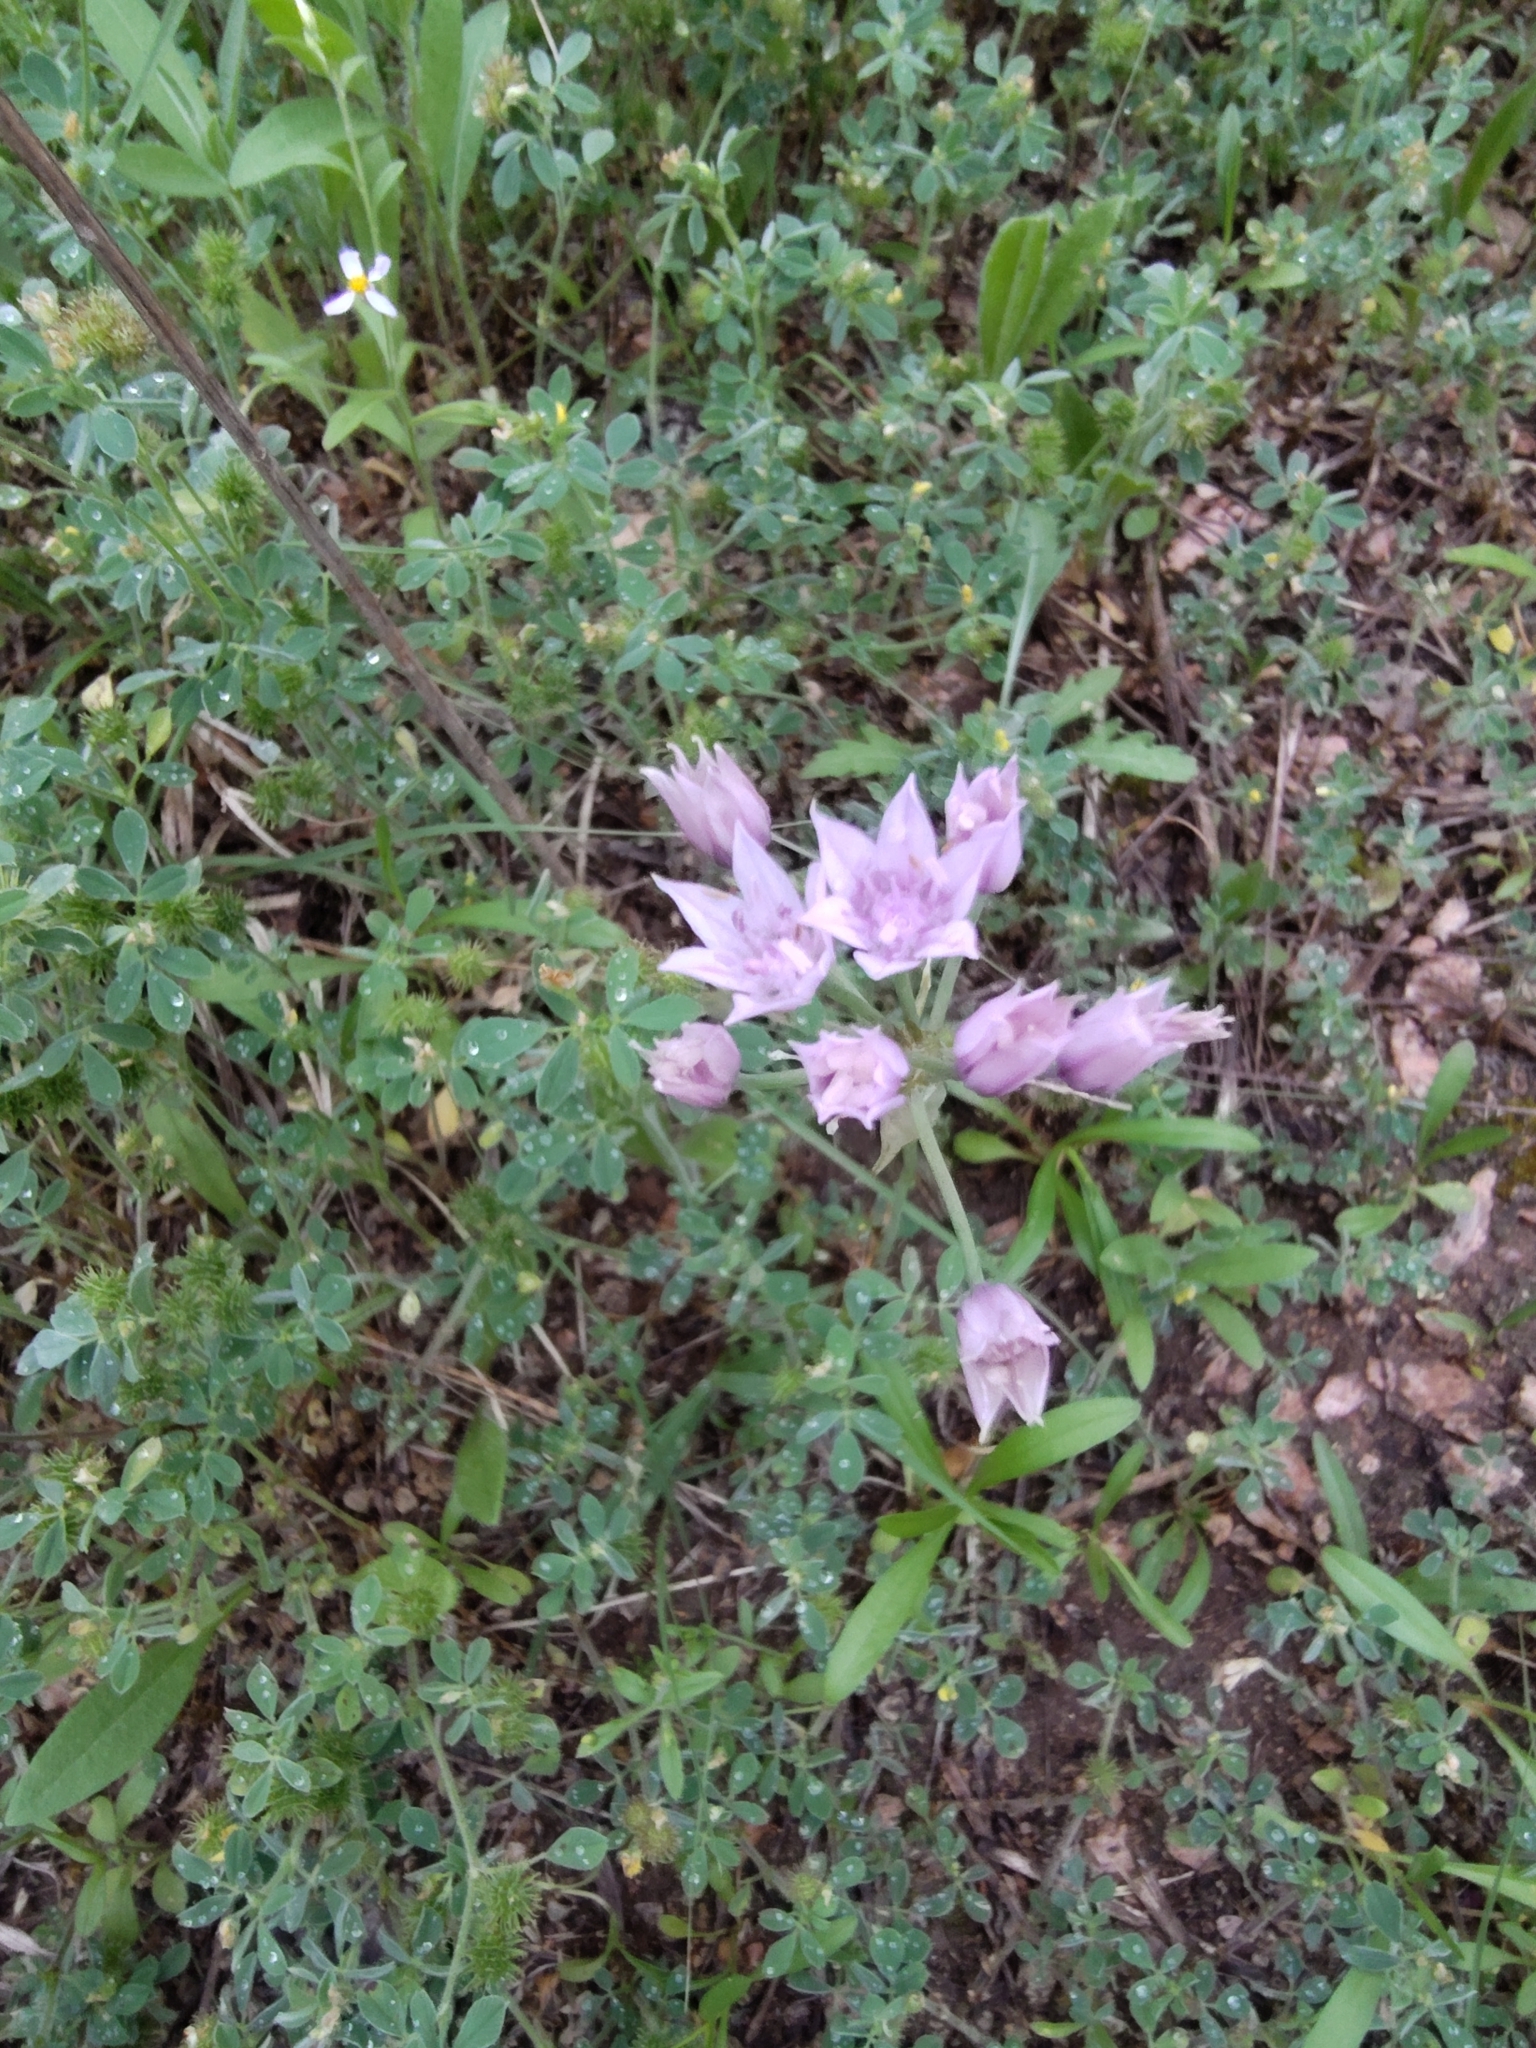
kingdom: Plantae
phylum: Tracheophyta
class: Liliopsida
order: Asparagales
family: Amaryllidaceae
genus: Allium
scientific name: Allium drummondii
